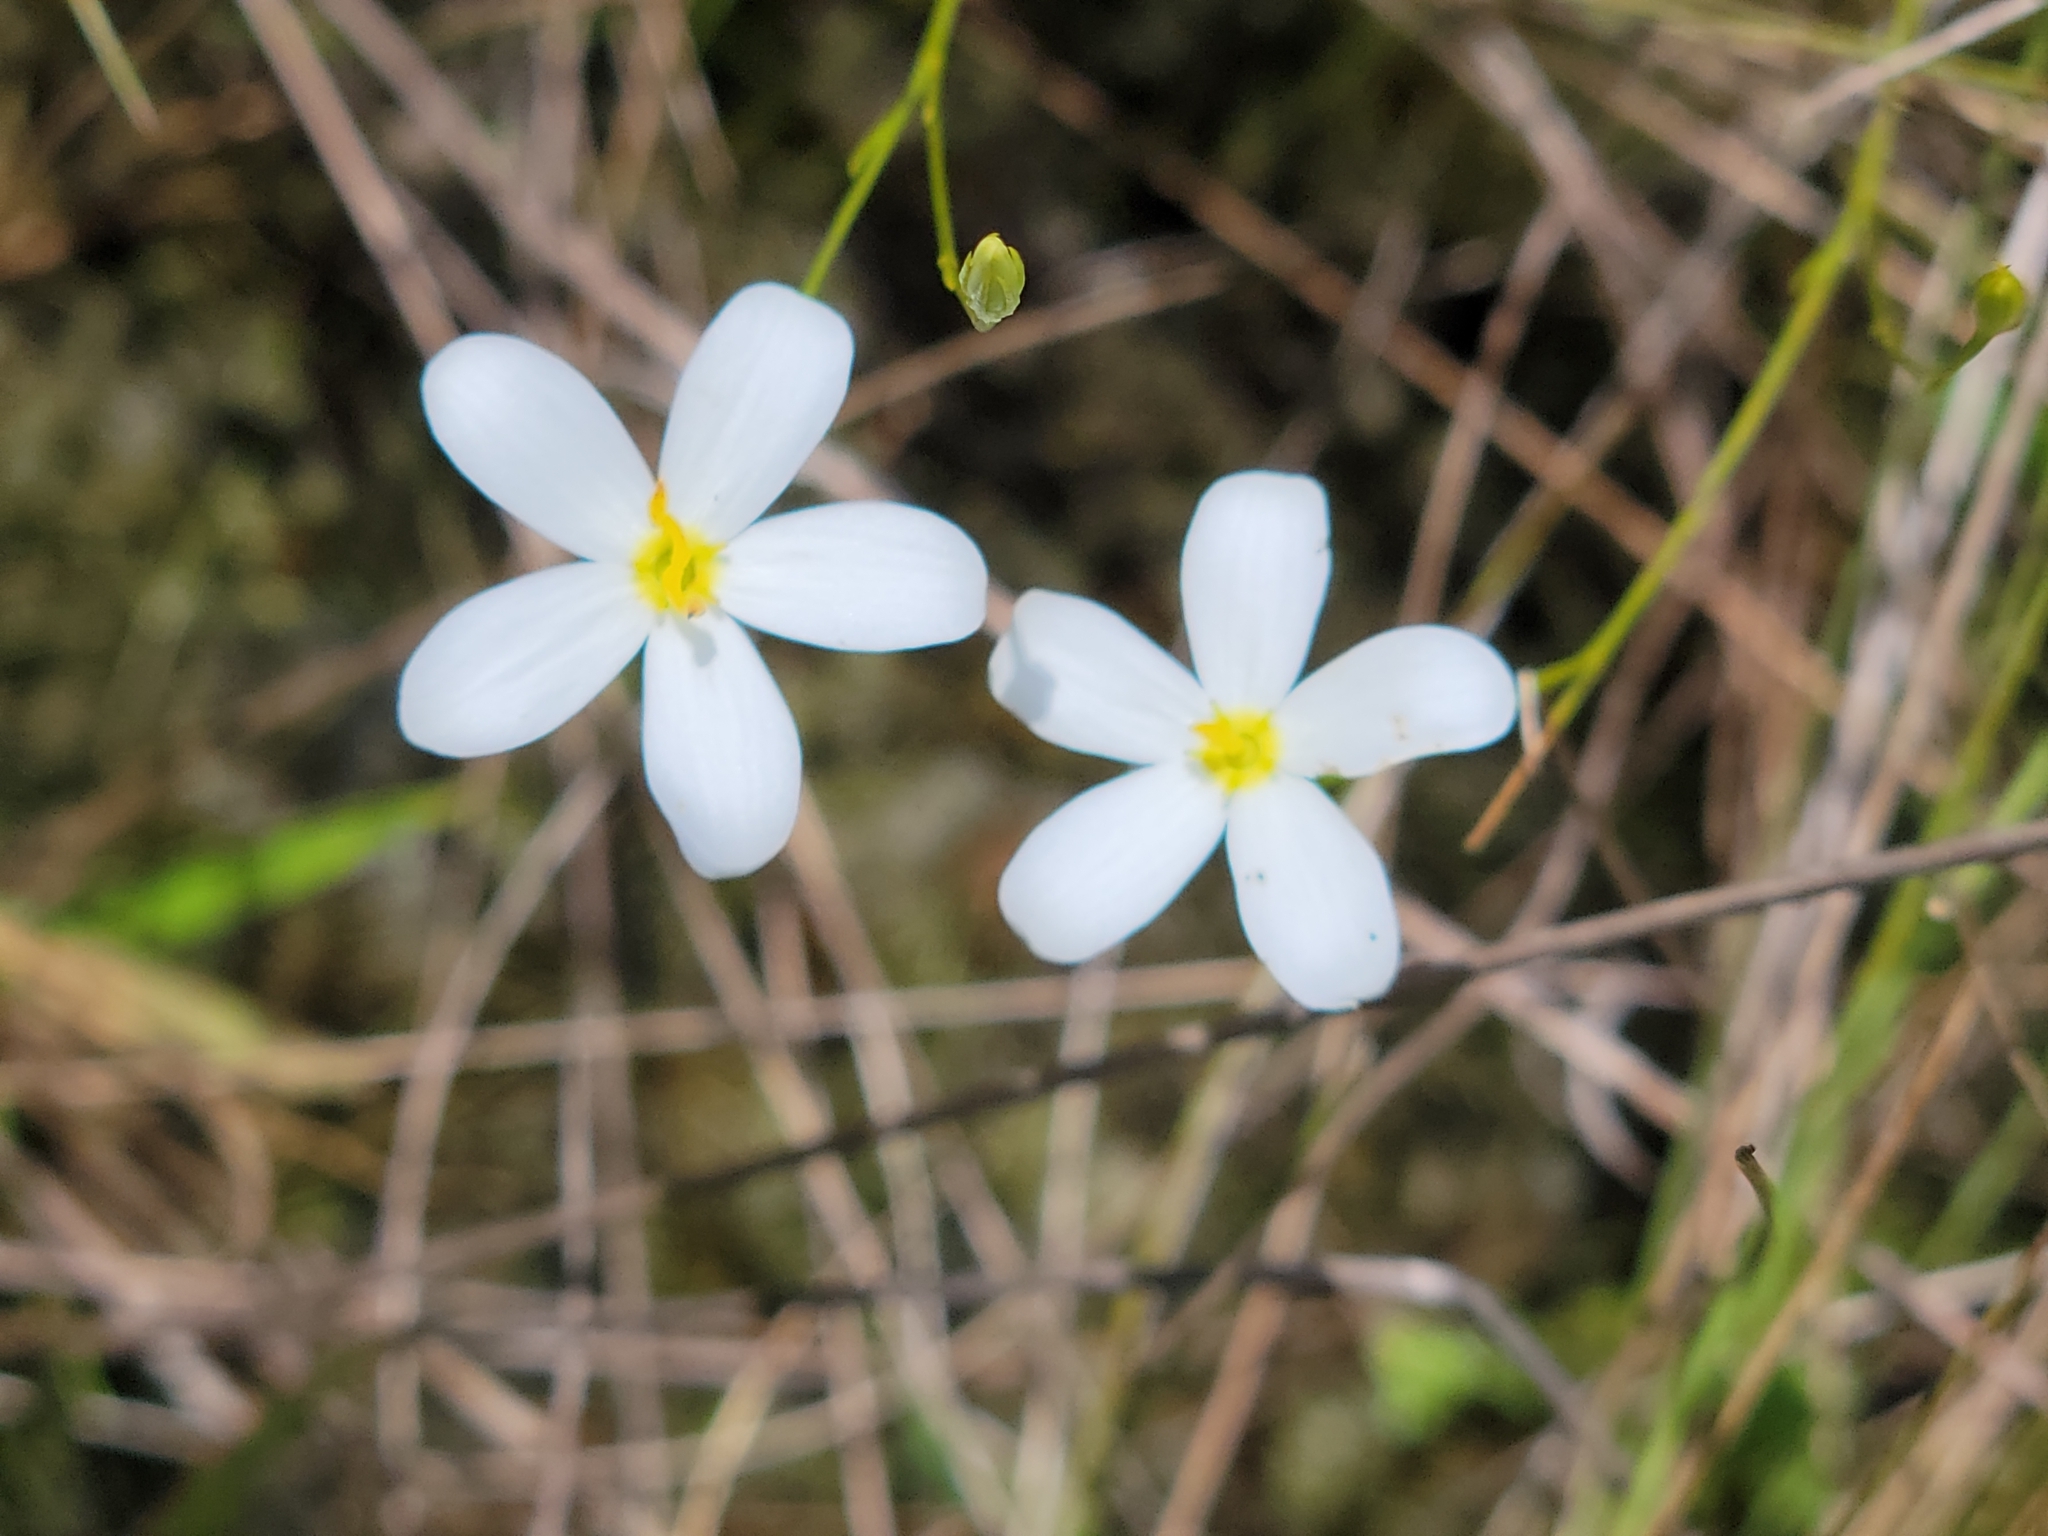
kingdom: Plantae
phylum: Tracheophyta
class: Magnoliopsida
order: Gentianales
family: Gentianaceae
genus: Sabatia
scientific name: Sabatia brevifolia
